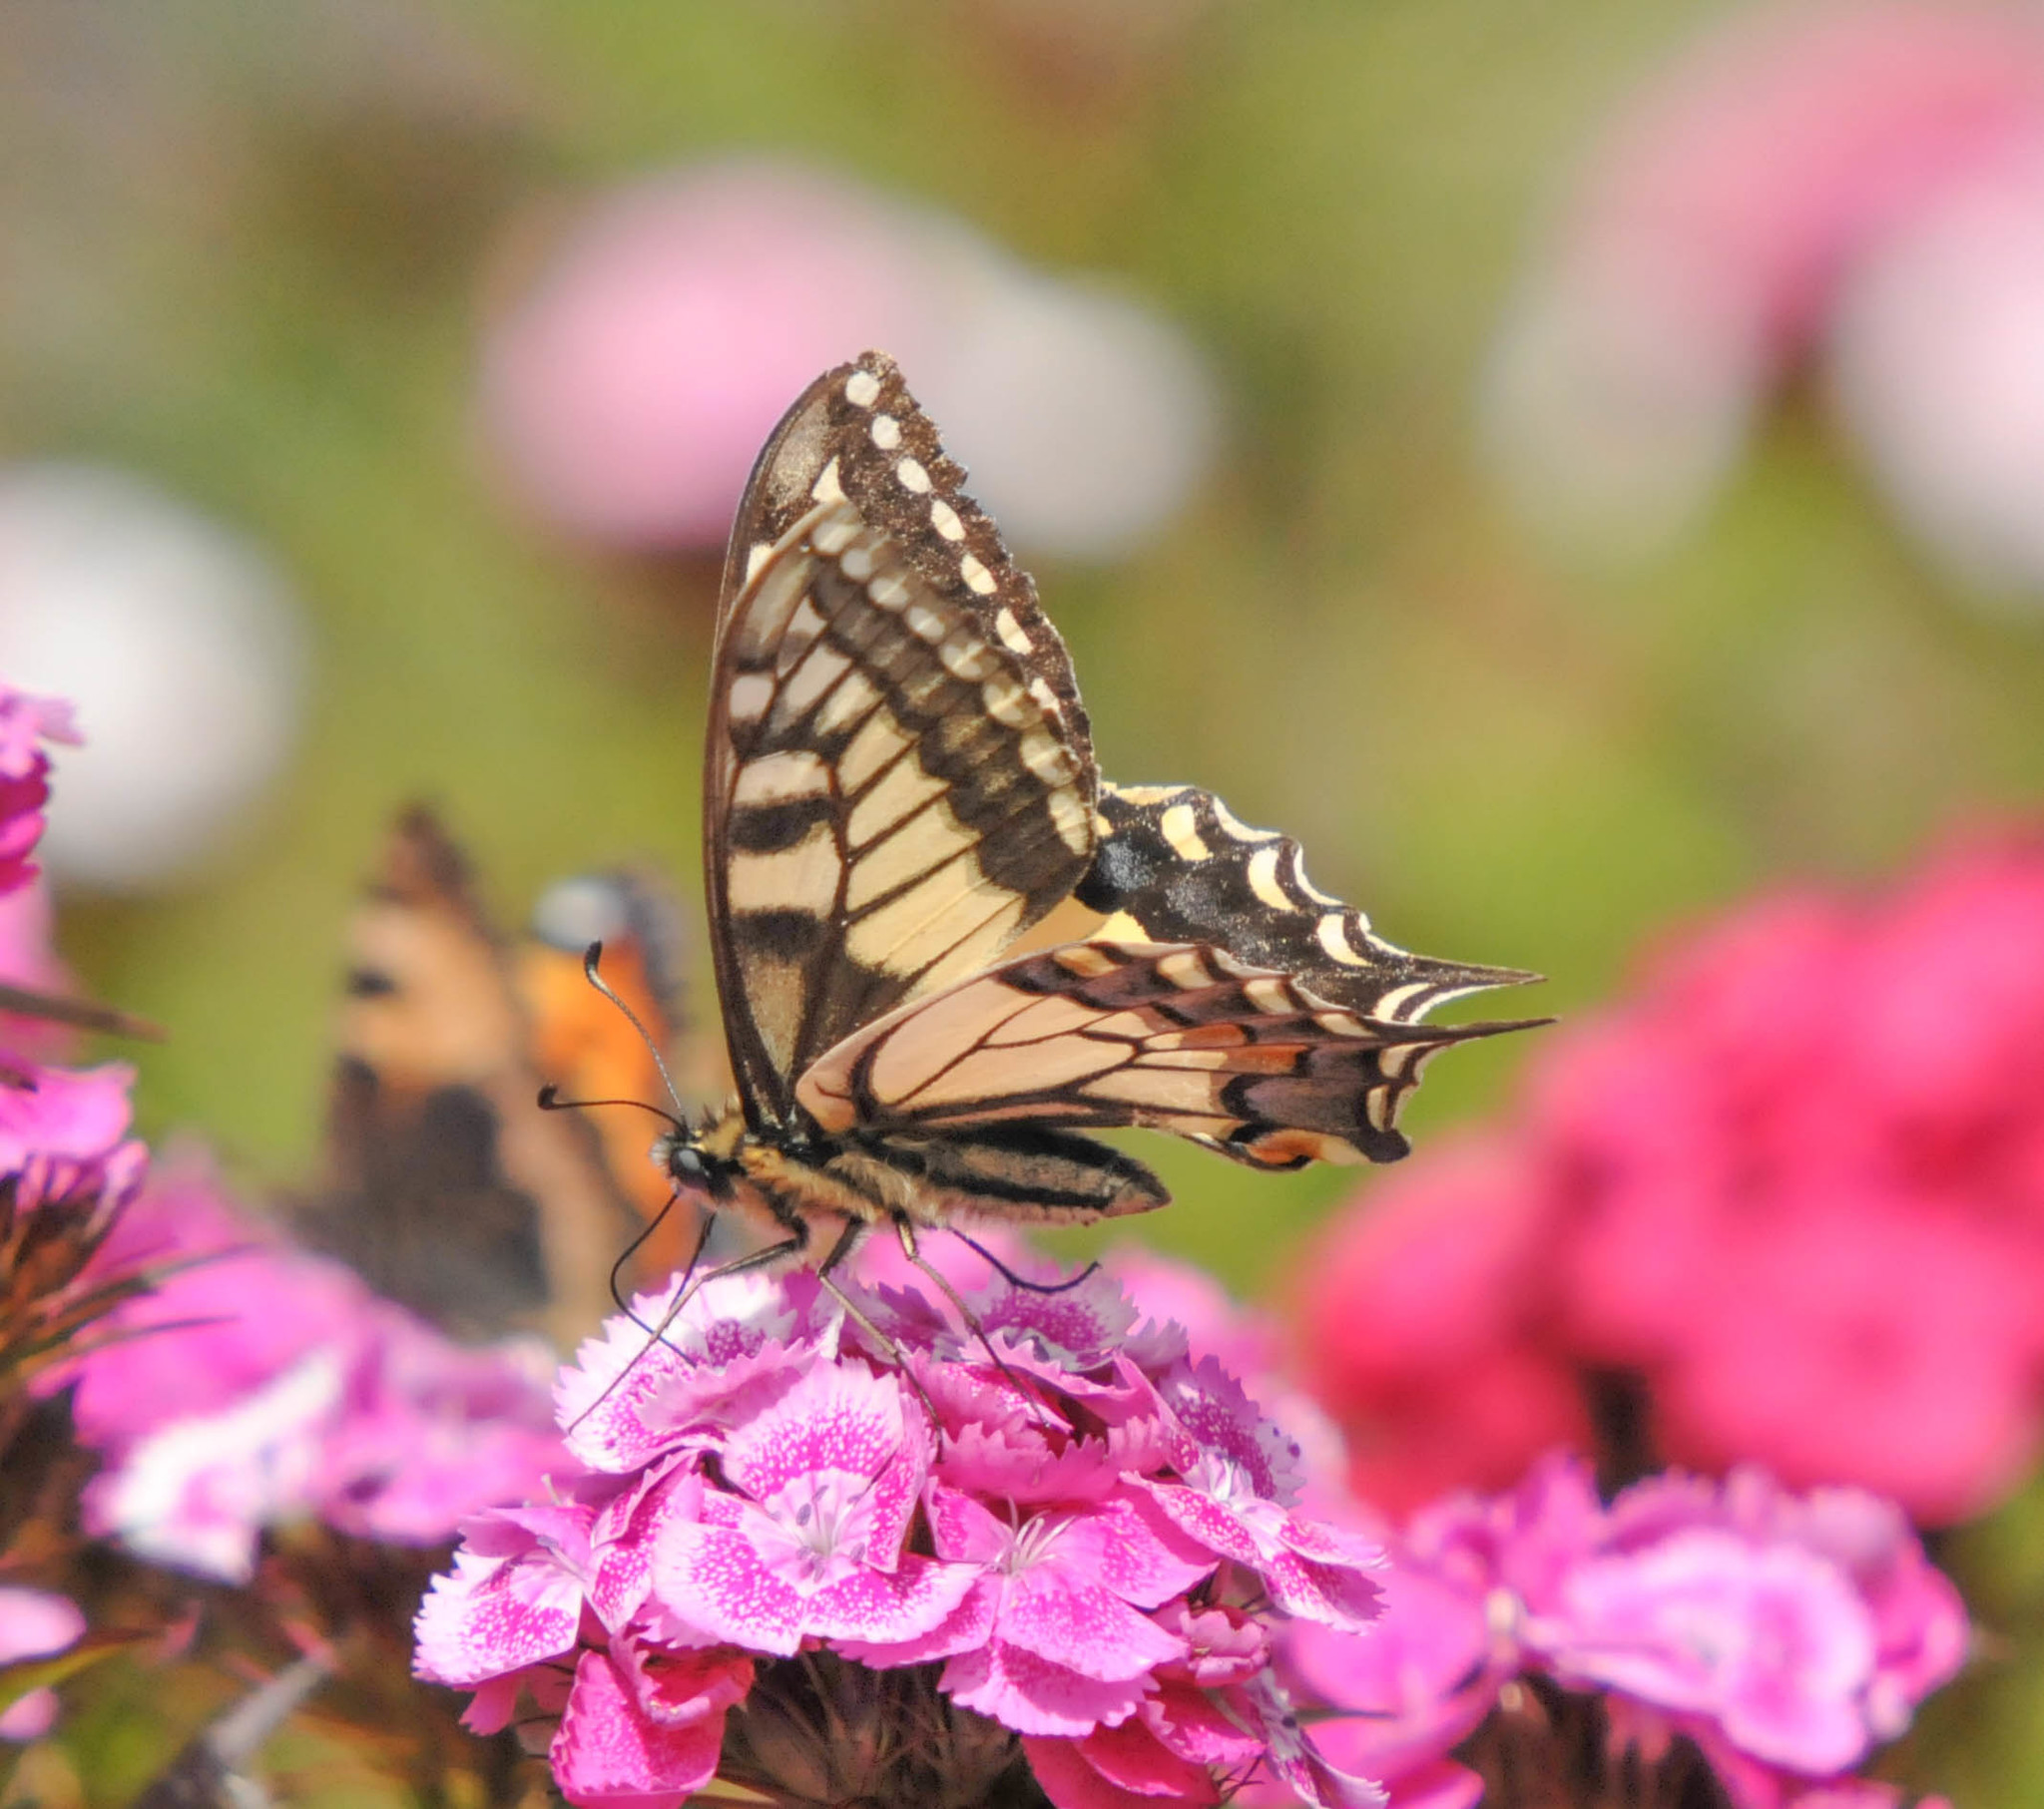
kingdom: Animalia
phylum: Arthropoda
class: Insecta
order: Lepidoptera
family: Papilionidae
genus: Papilio
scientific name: Papilio machaon
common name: Swallowtail
